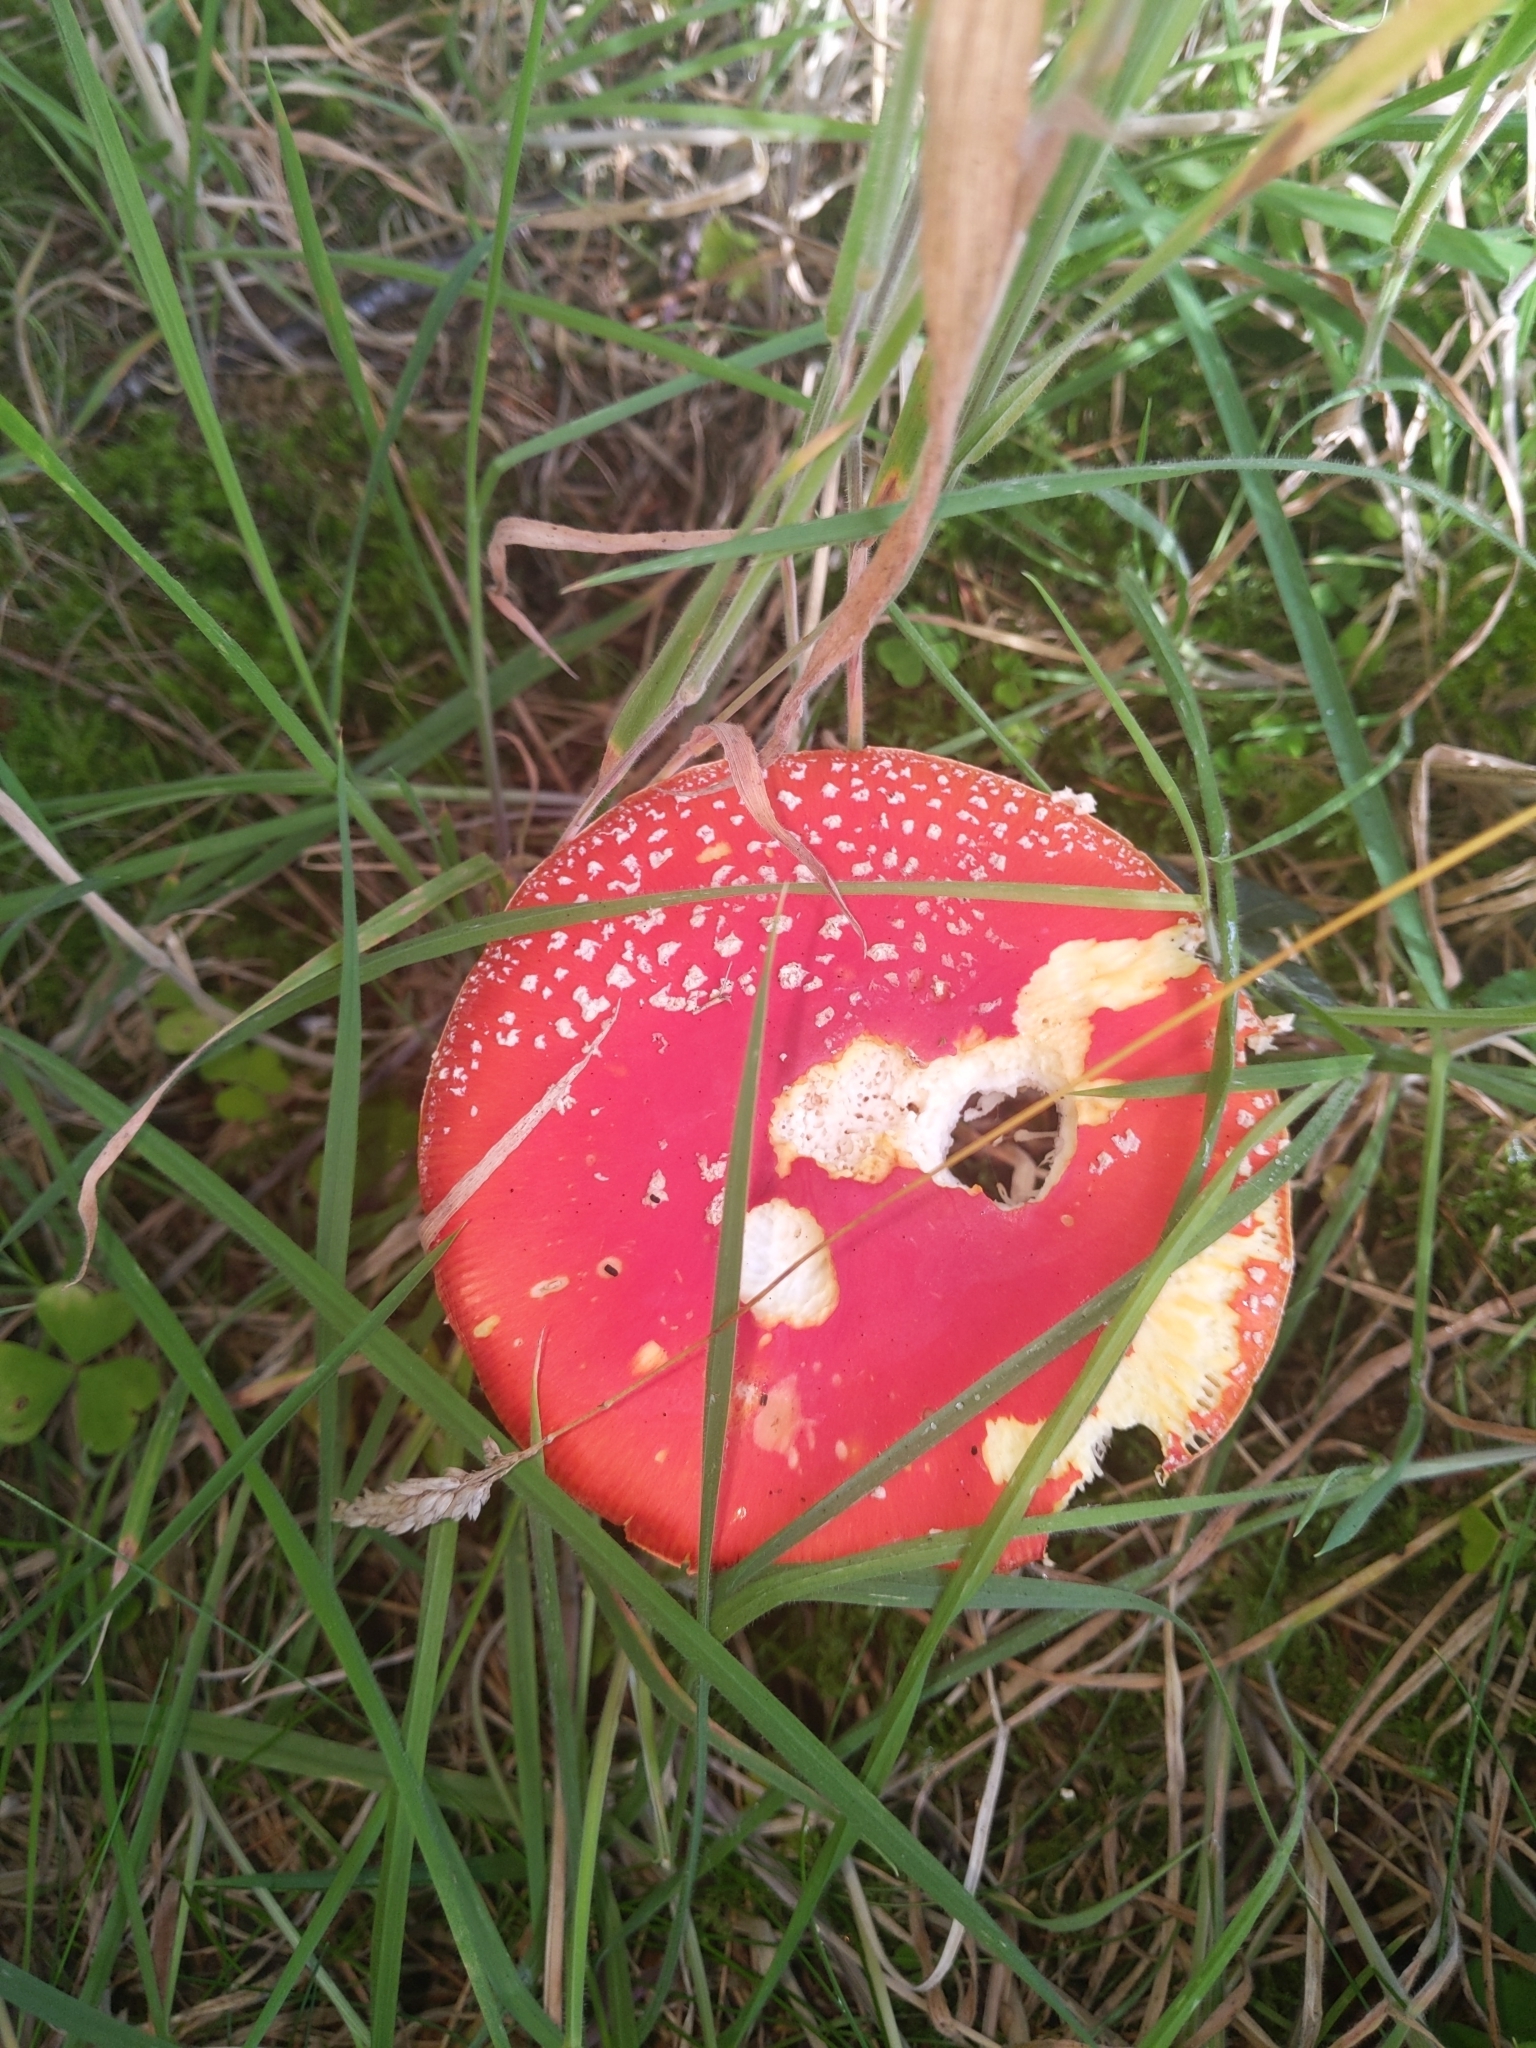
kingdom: Fungi
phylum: Basidiomycota
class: Agaricomycetes
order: Agaricales
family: Amanitaceae
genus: Amanita
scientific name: Amanita muscaria
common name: Fly agaric
